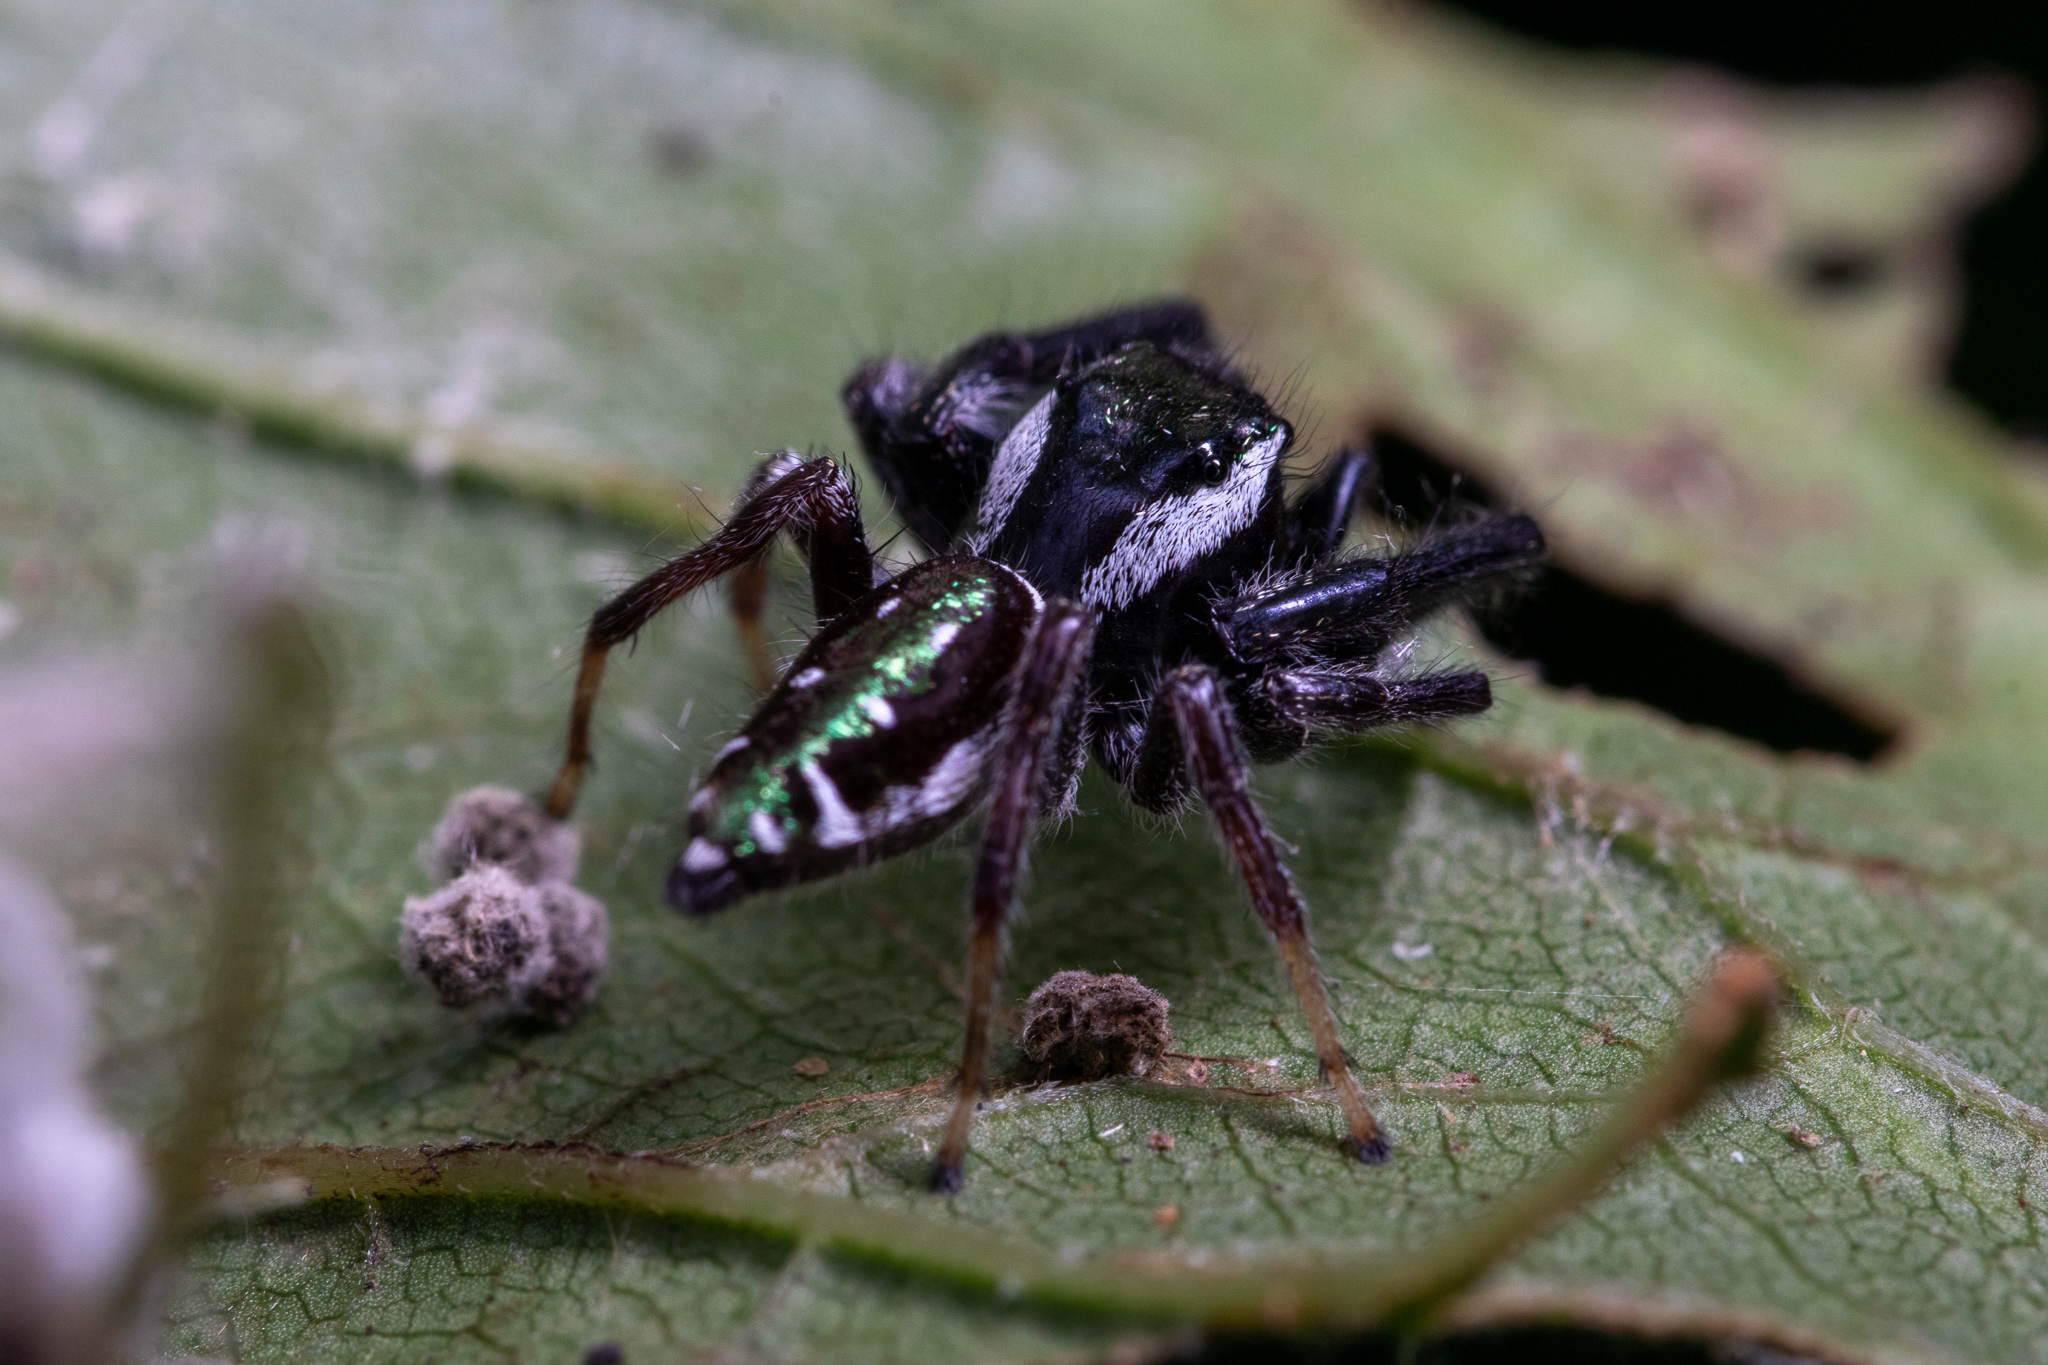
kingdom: Animalia
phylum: Arthropoda
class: Arachnida
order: Araneae
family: Salticidae
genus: Paraphidippus
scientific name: Paraphidippus aurantius
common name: Jumping spiders
